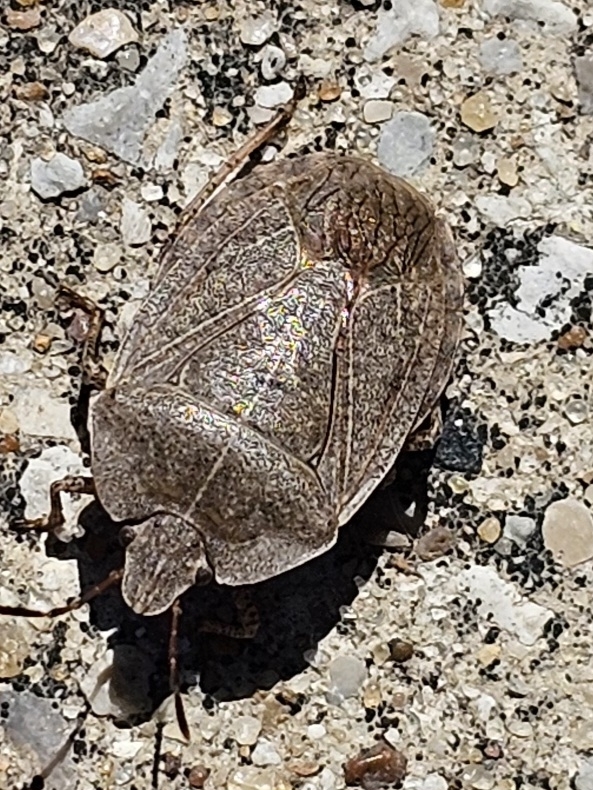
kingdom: Animalia
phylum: Arthropoda
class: Insecta
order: Hemiptera
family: Pentatomidae
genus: Menecles
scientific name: Menecles insertus
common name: Elf shoe stink bug
